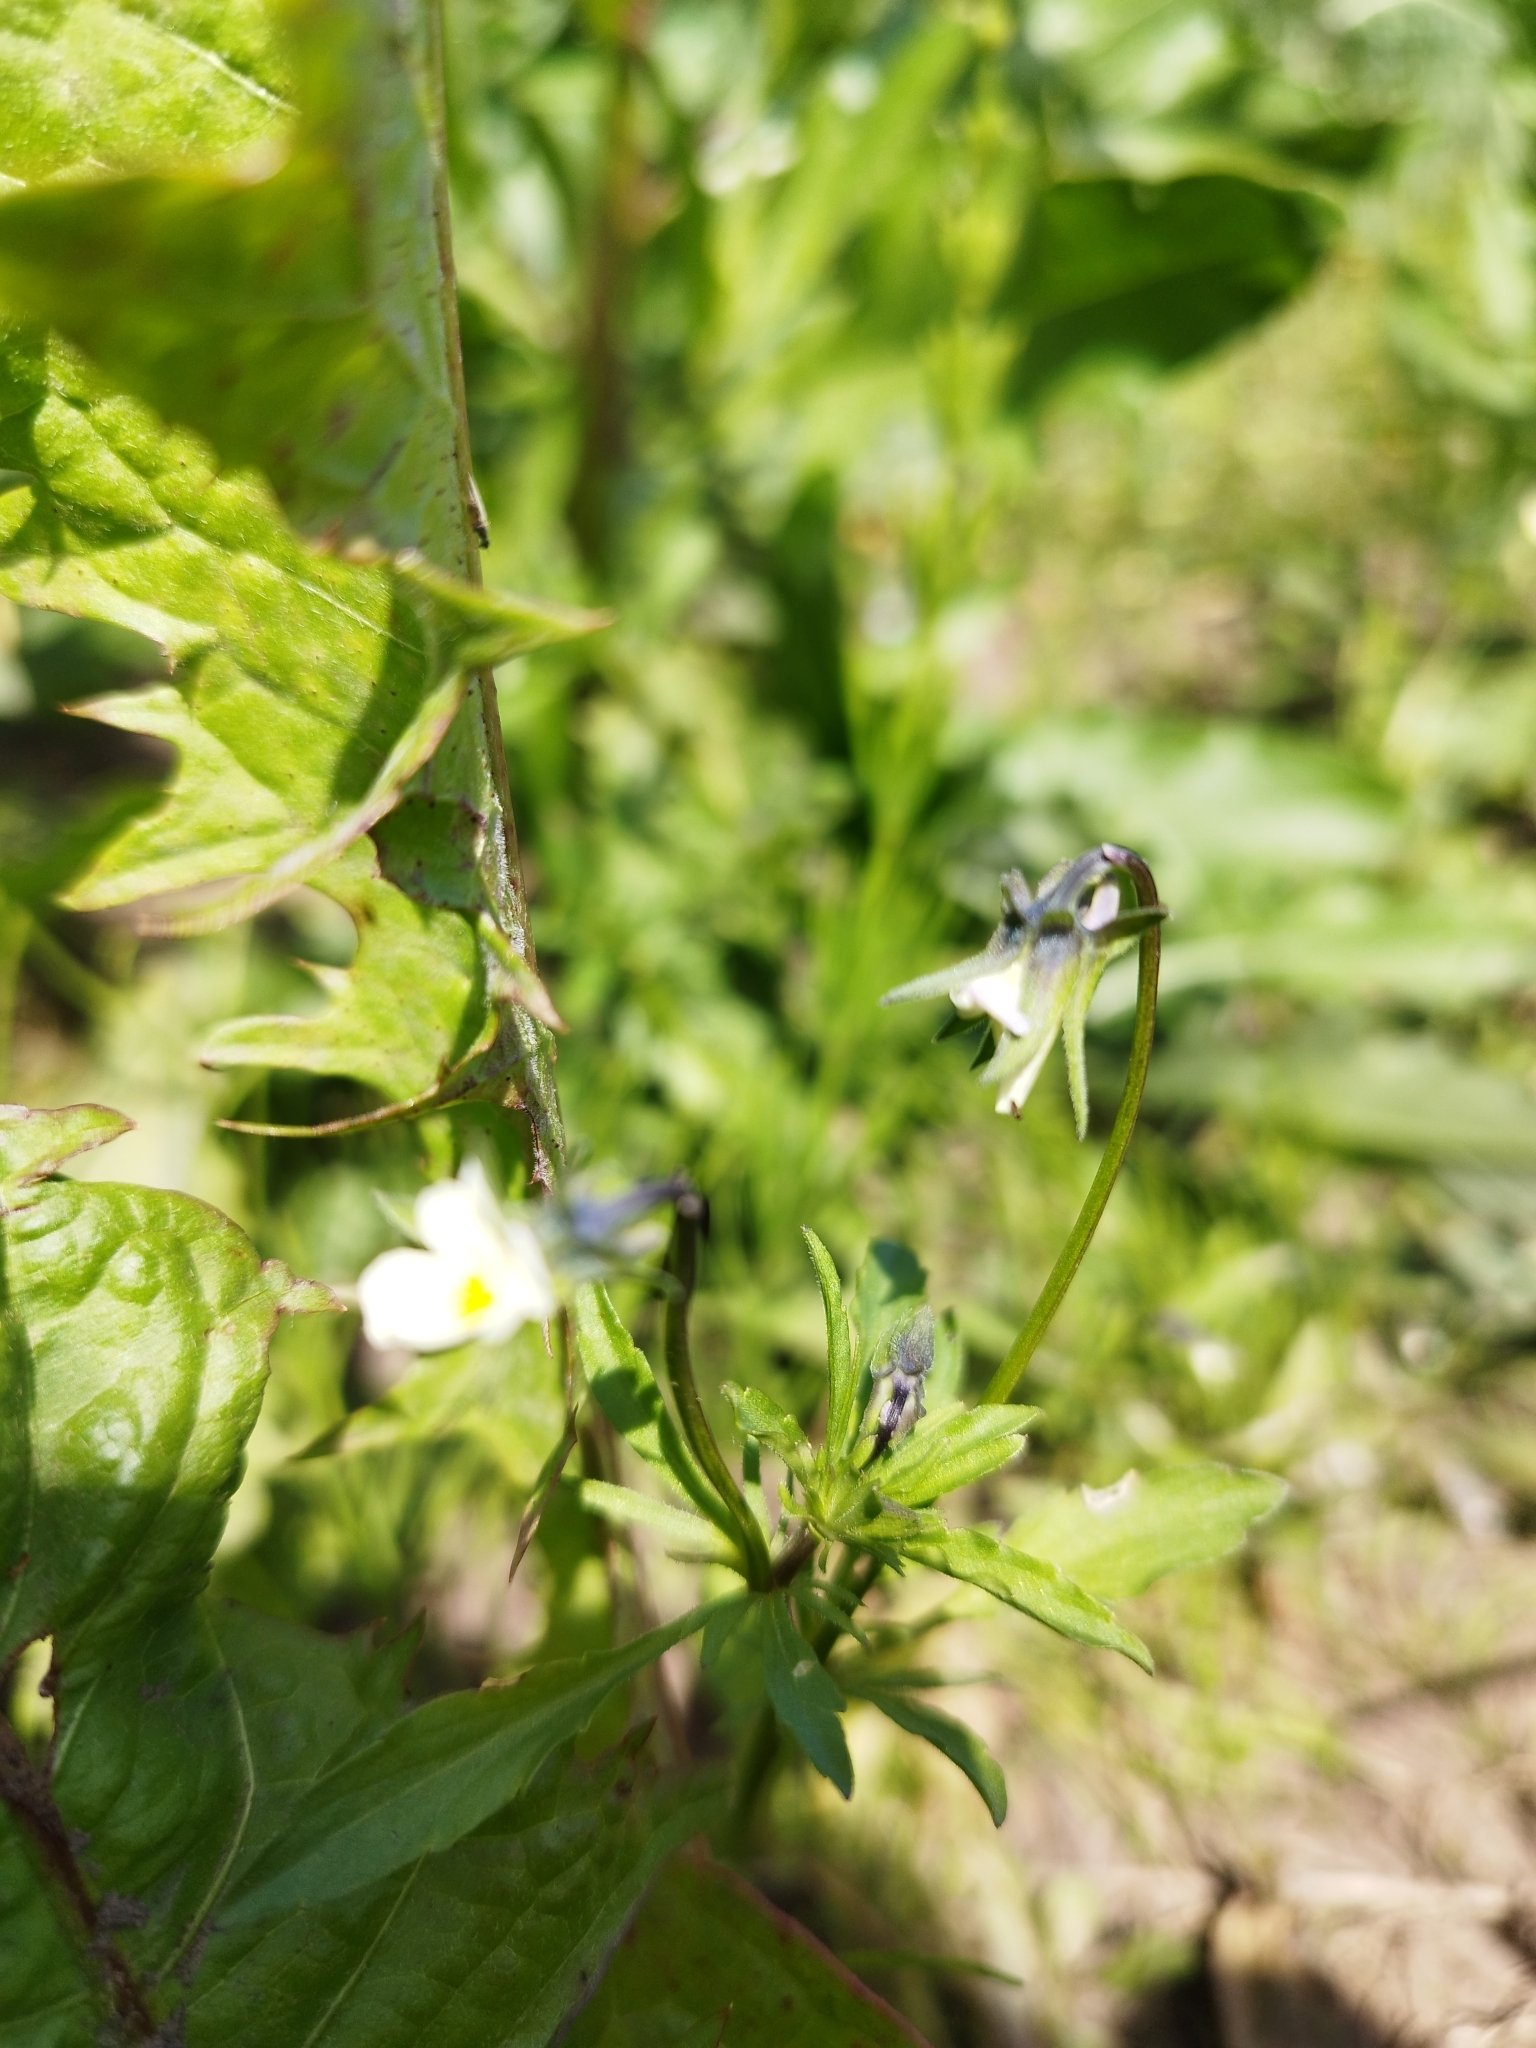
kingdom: Plantae
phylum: Tracheophyta
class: Magnoliopsida
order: Malpighiales
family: Violaceae
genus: Viola
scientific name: Viola arvensis
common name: Field pansy
